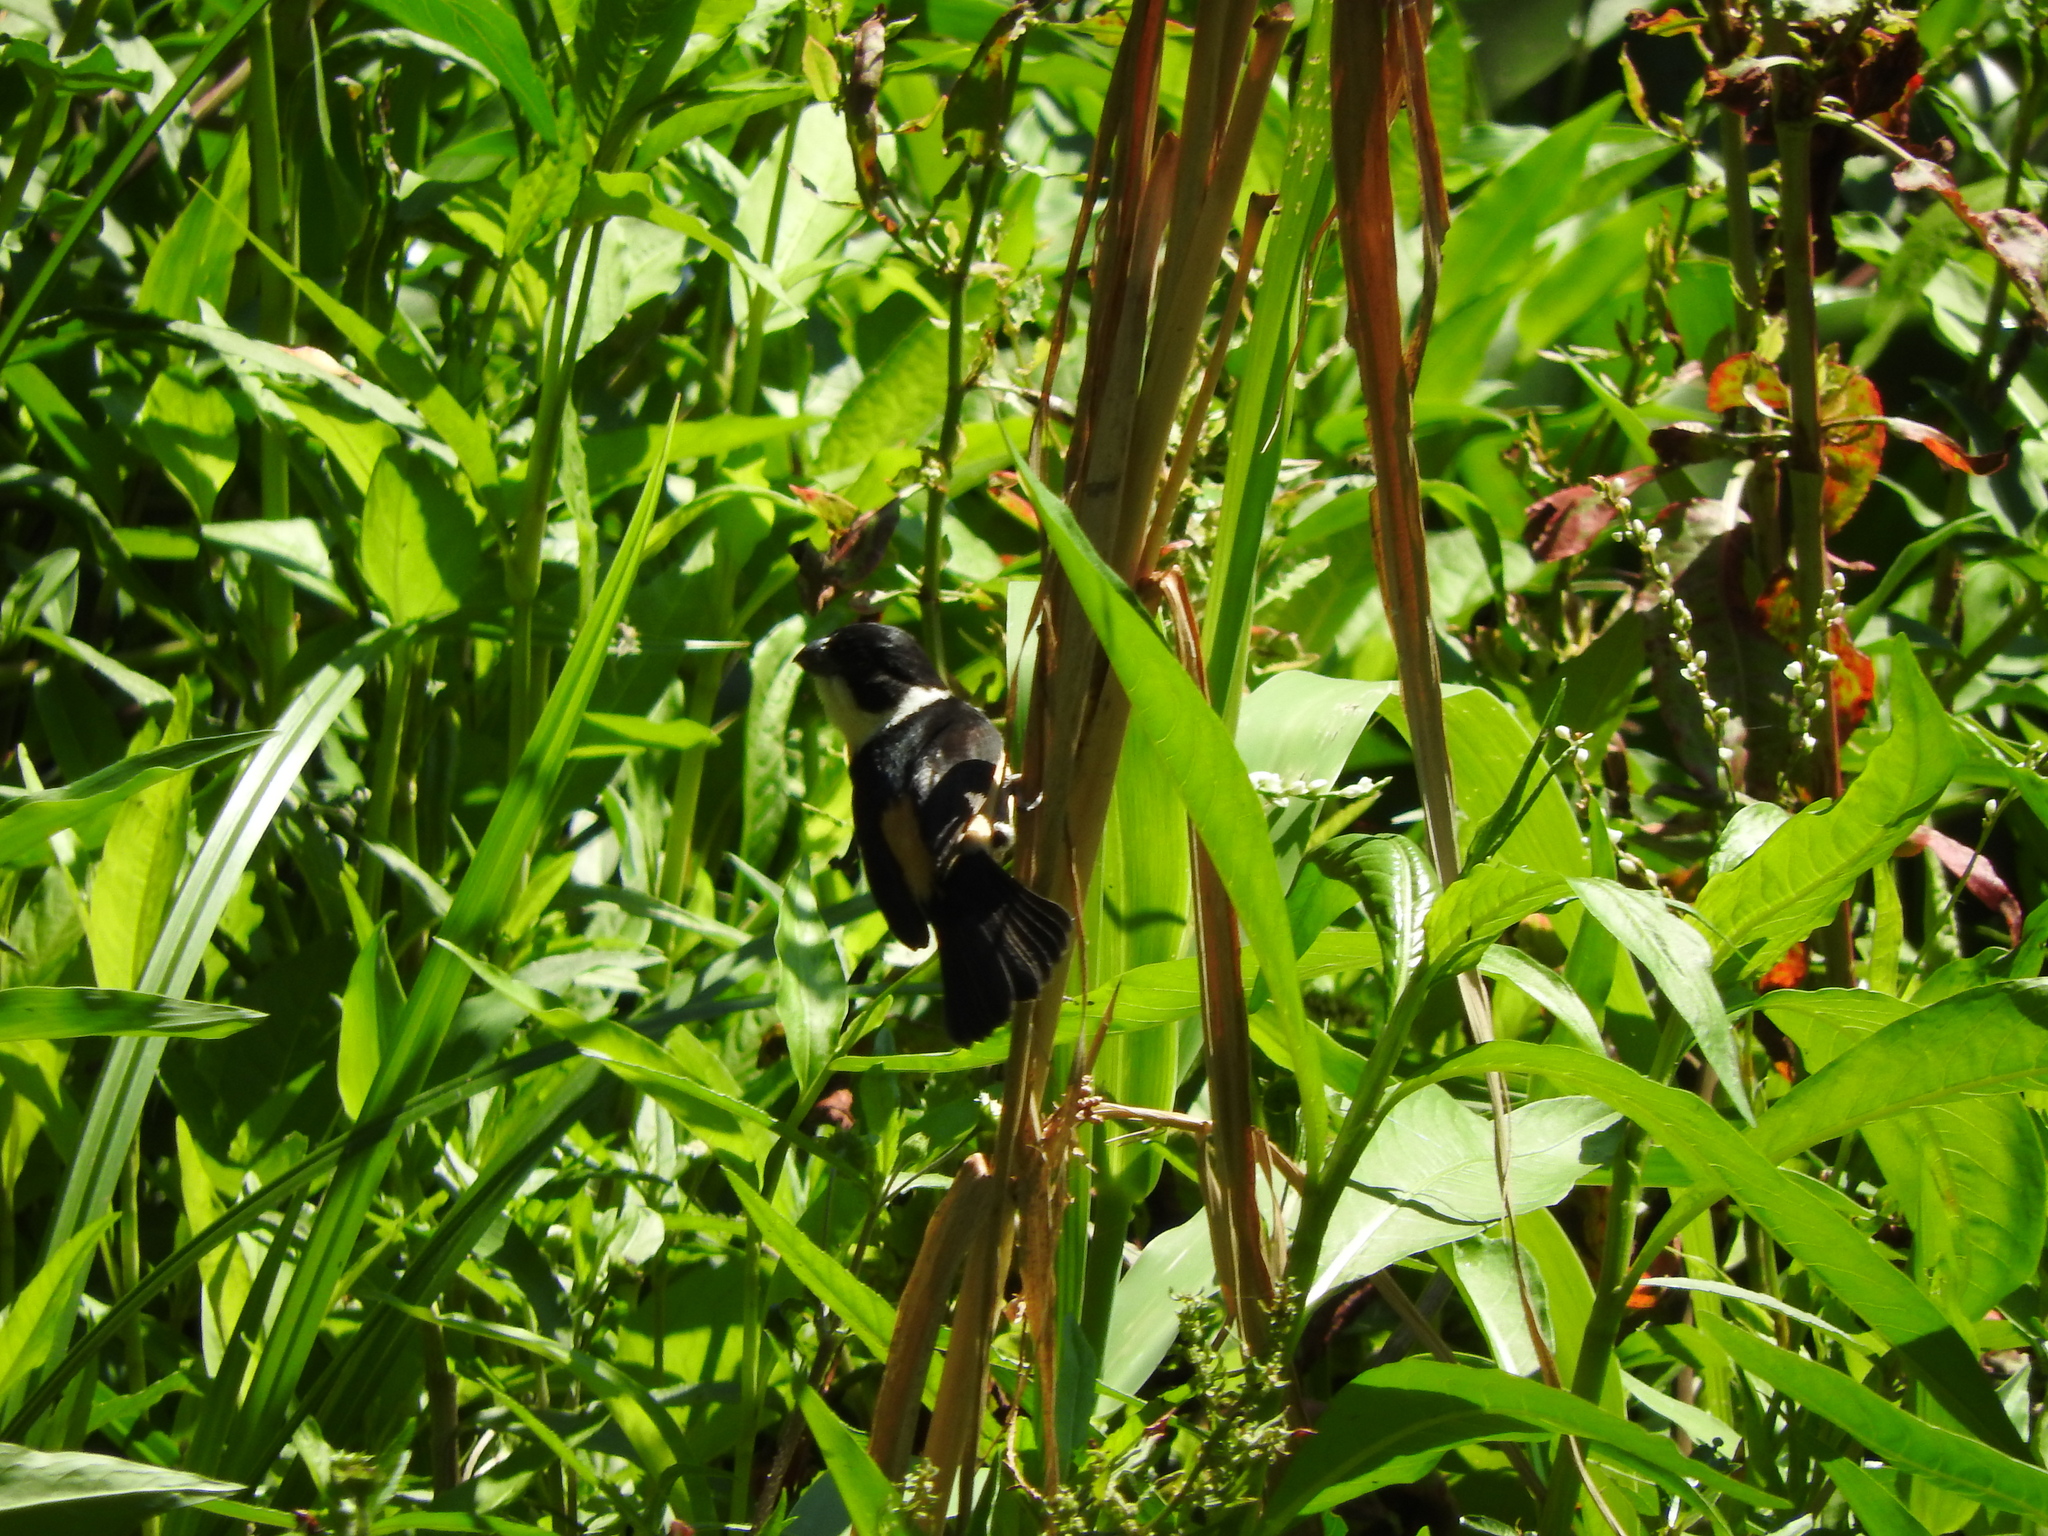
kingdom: Animalia
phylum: Chordata
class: Aves
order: Passeriformes
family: Thraupidae
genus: Sporophila
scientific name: Sporophila torqueola
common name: White-collared seedeater
